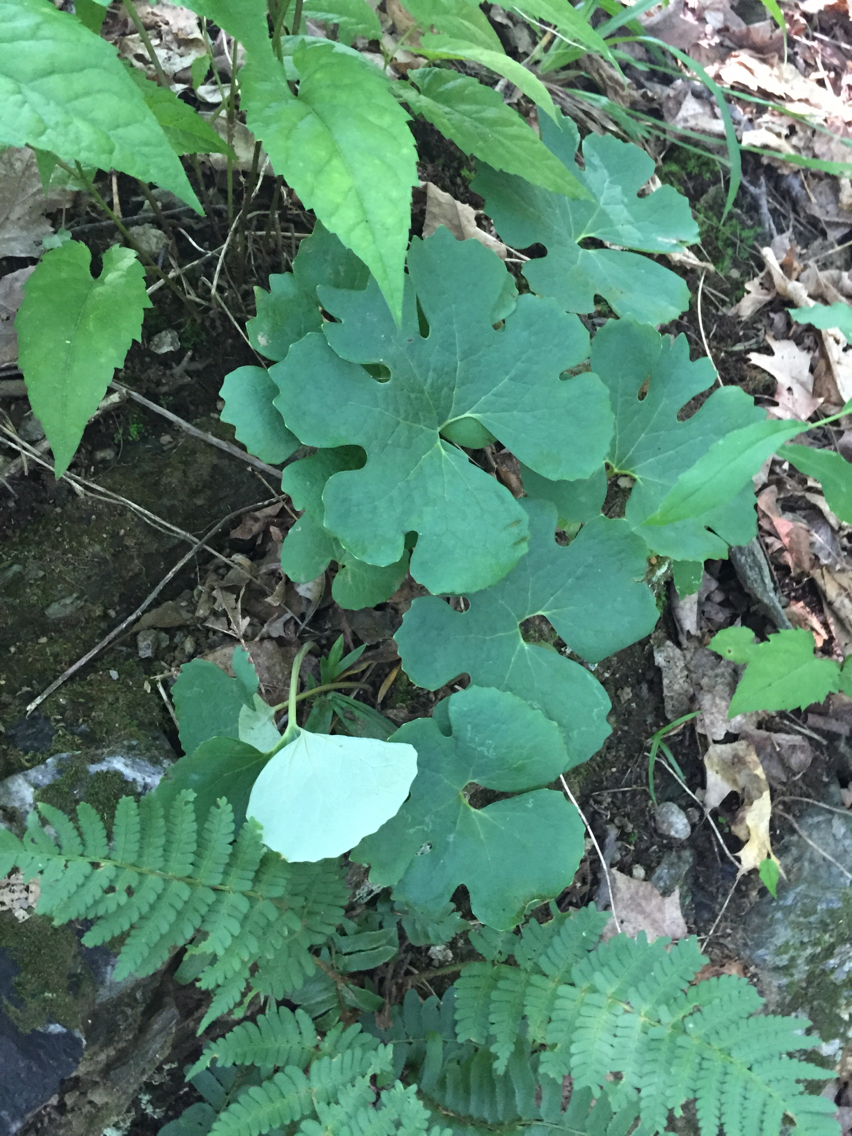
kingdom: Plantae
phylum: Tracheophyta
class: Magnoliopsida
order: Ranunculales
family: Papaveraceae
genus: Sanguinaria
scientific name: Sanguinaria canadensis
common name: Bloodroot
